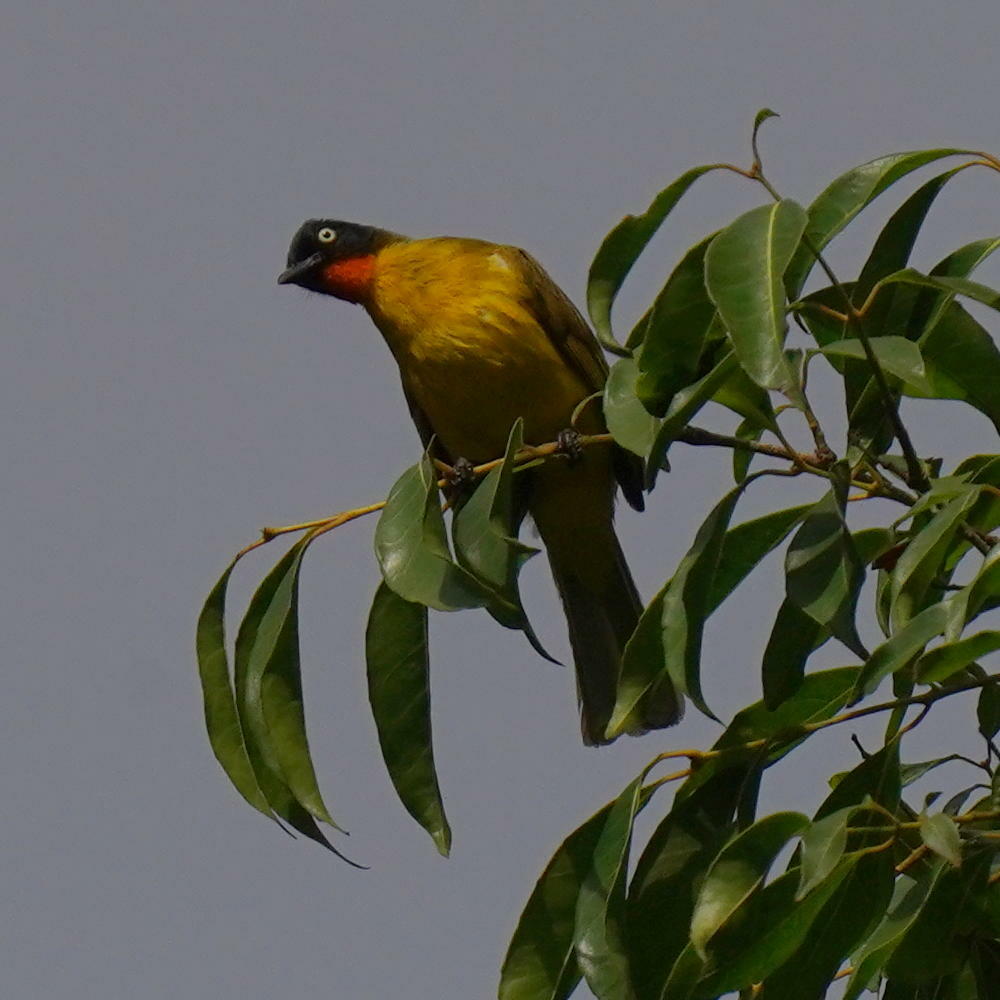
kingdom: Animalia
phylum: Chordata
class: Aves
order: Passeriformes
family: Pycnonotidae
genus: Pycnonotus
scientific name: Pycnonotus gularis
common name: Flame-throated bulbul
